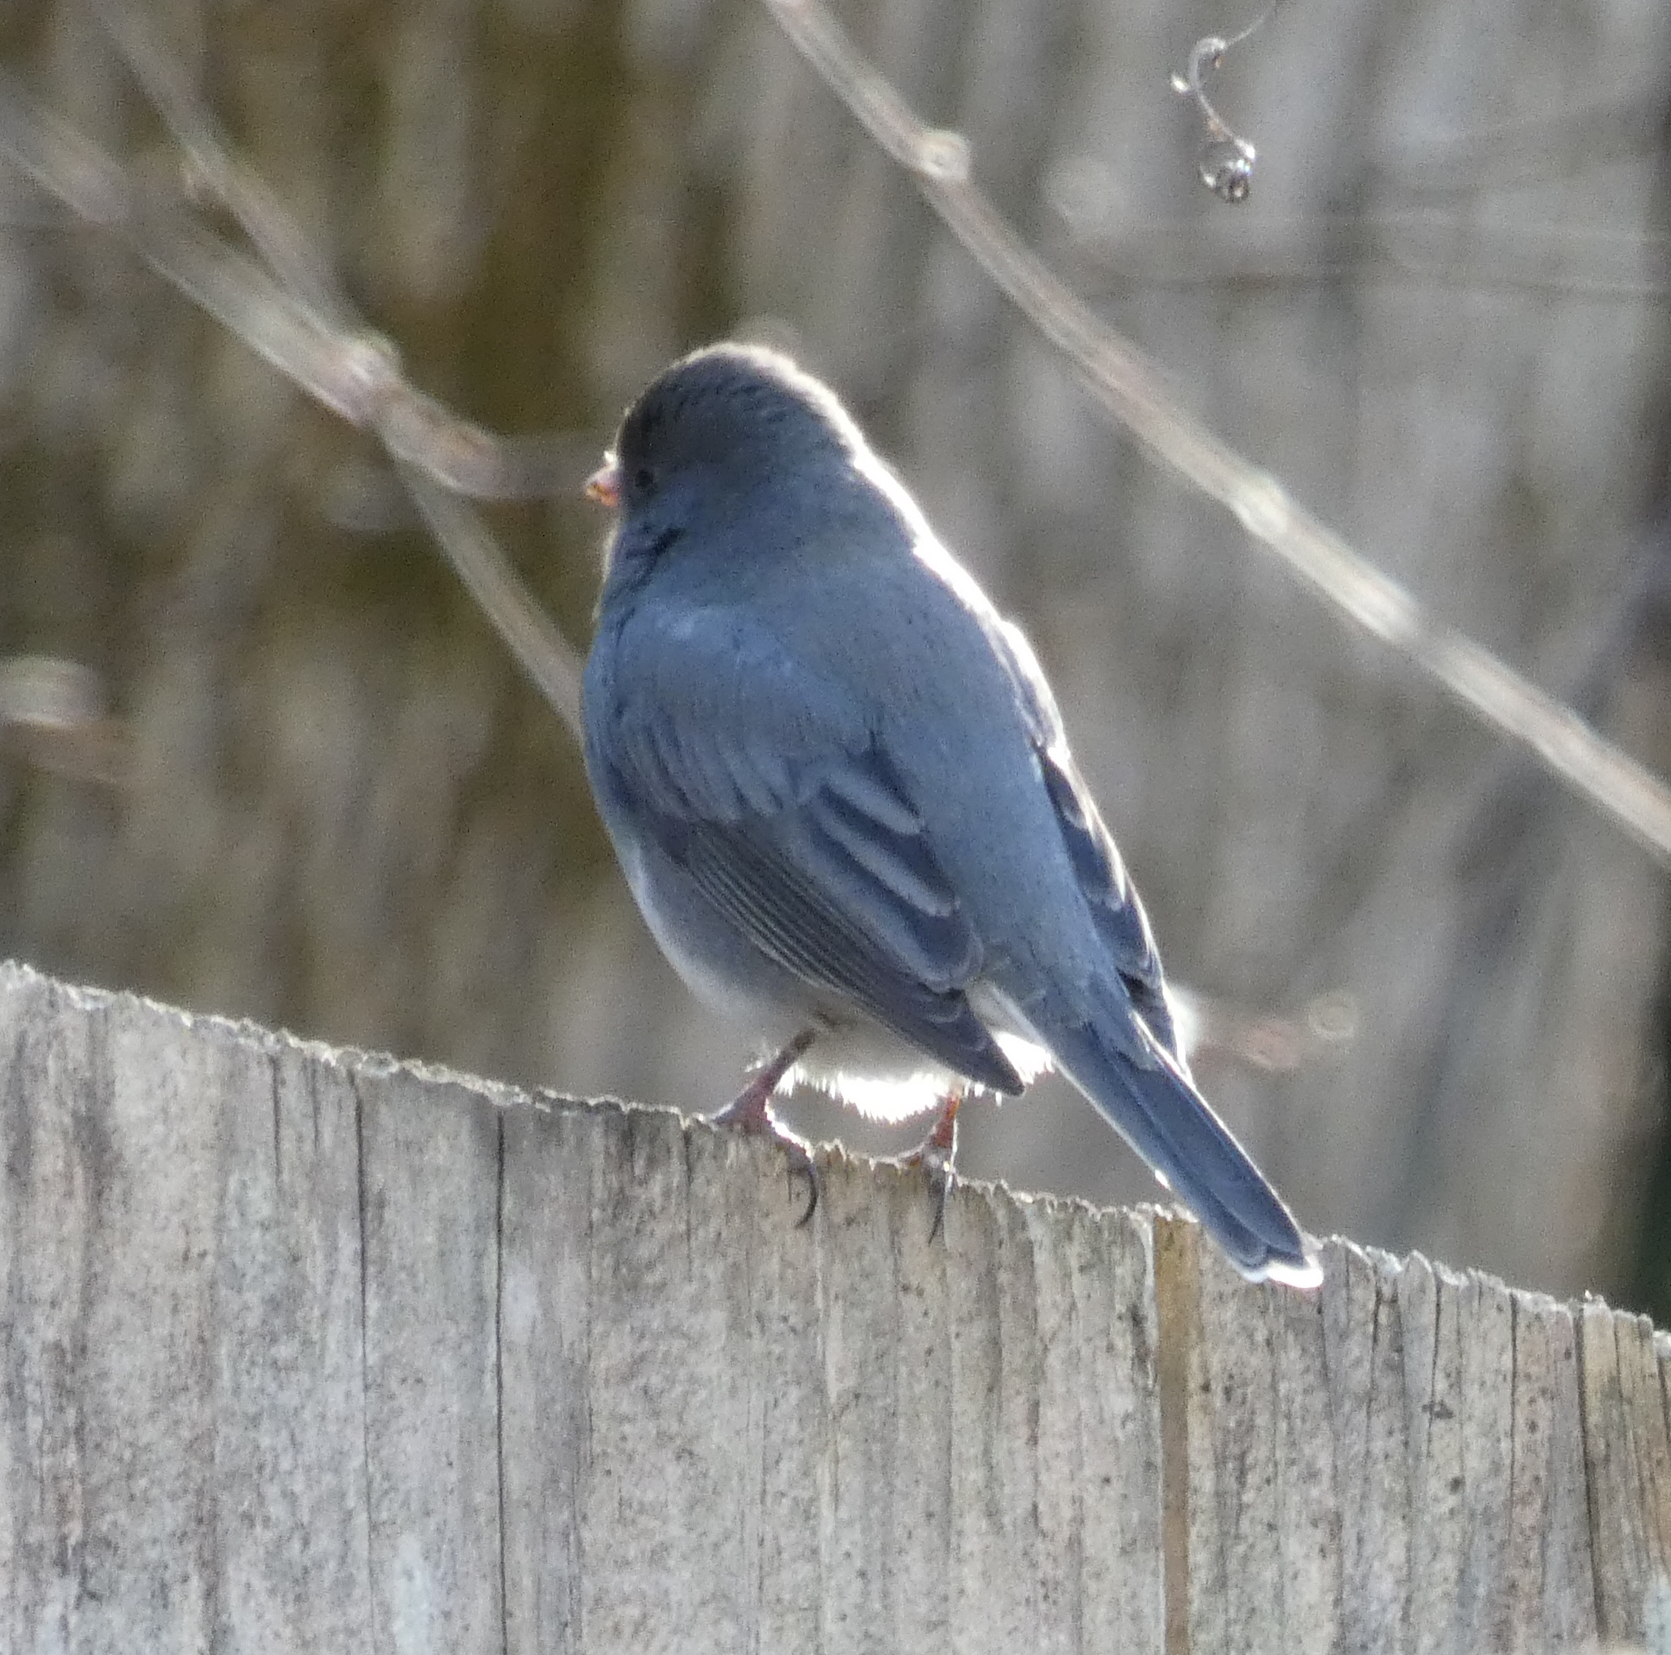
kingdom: Animalia
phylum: Chordata
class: Aves
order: Passeriformes
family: Passerellidae
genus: Junco
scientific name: Junco hyemalis
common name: Dark-eyed junco
